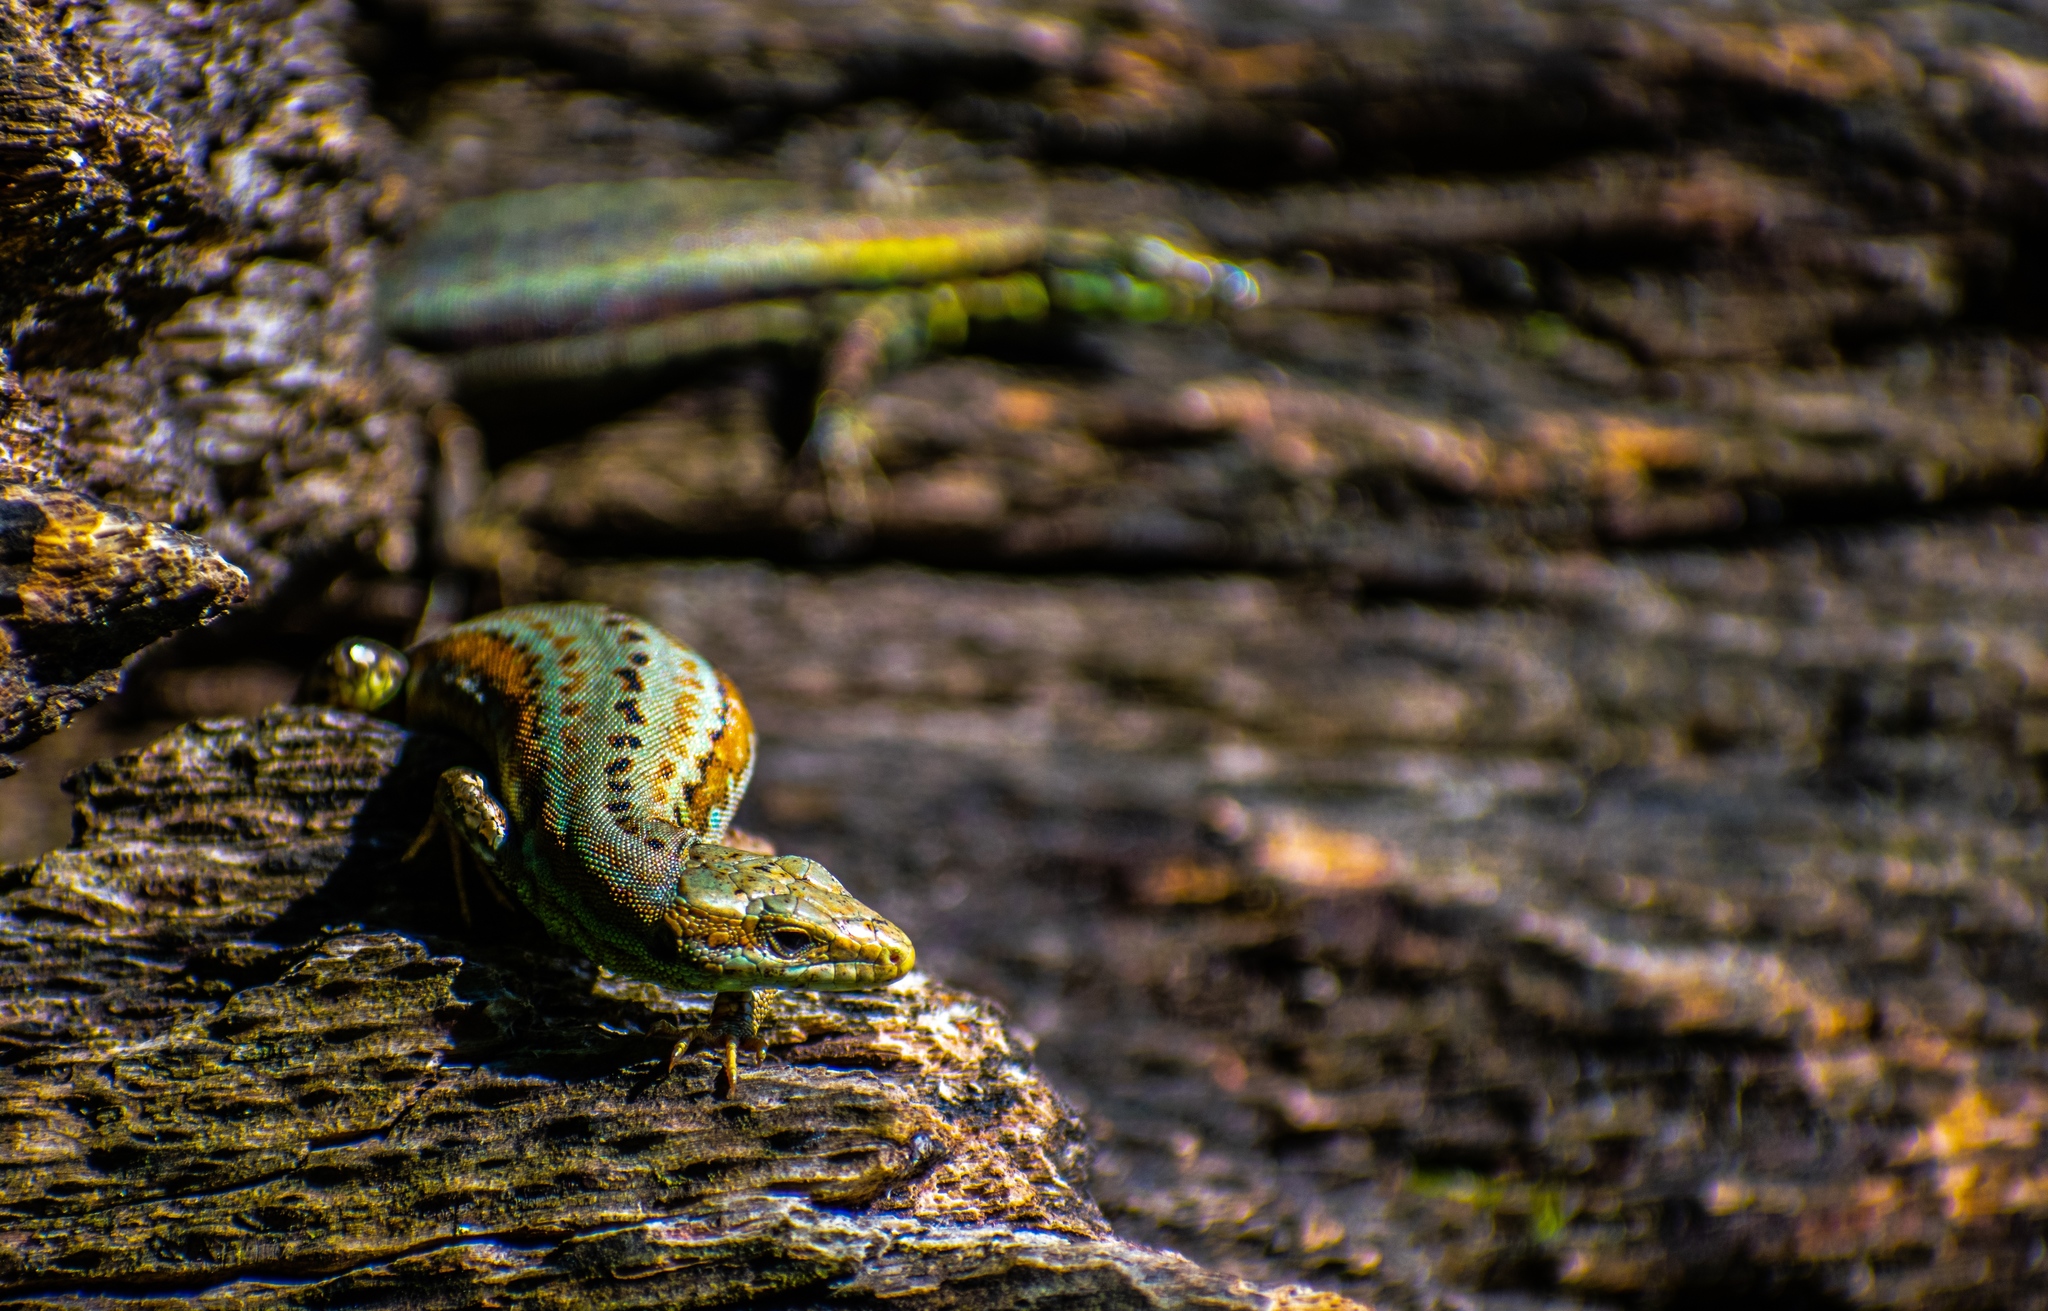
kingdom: Animalia
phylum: Chordata
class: Squamata
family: Lacertidae
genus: Podarcis
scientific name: Podarcis muralis
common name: Common wall lizard
